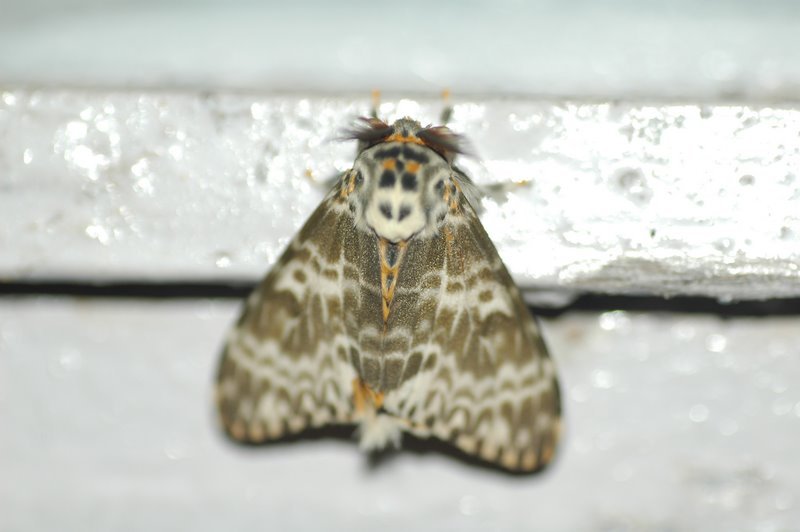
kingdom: Animalia
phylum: Arthropoda
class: Insecta
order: Lepidoptera
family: Erebidae
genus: Lymantria
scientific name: Lymantria mathura
